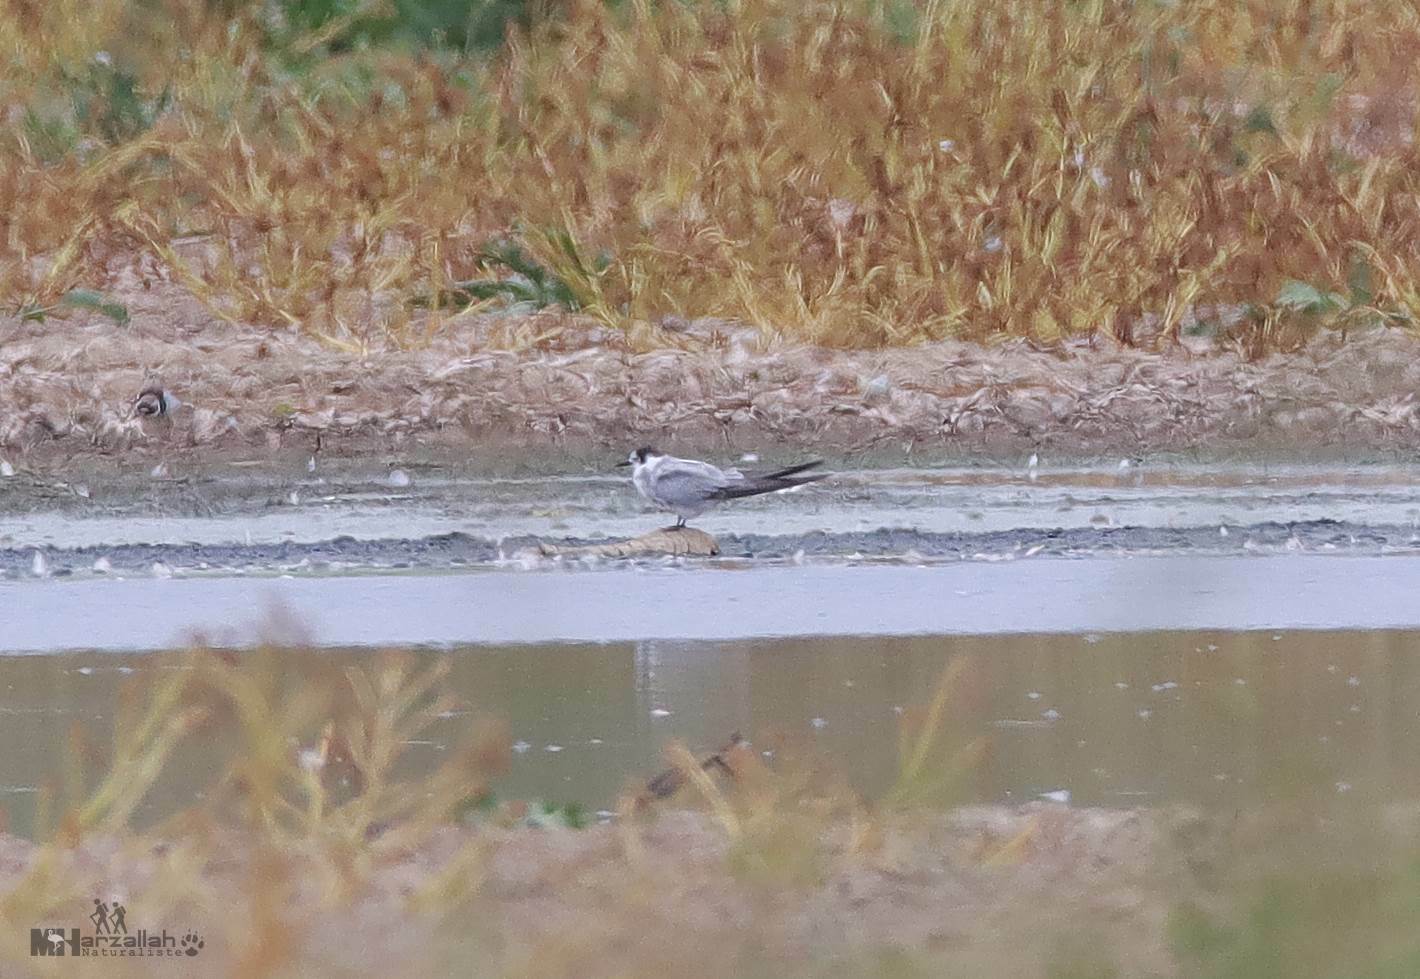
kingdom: Animalia
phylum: Chordata
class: Aves
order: Charadriiformes
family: Laridae
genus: Chlidonias
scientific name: Chlidonias niger
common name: Black tern
